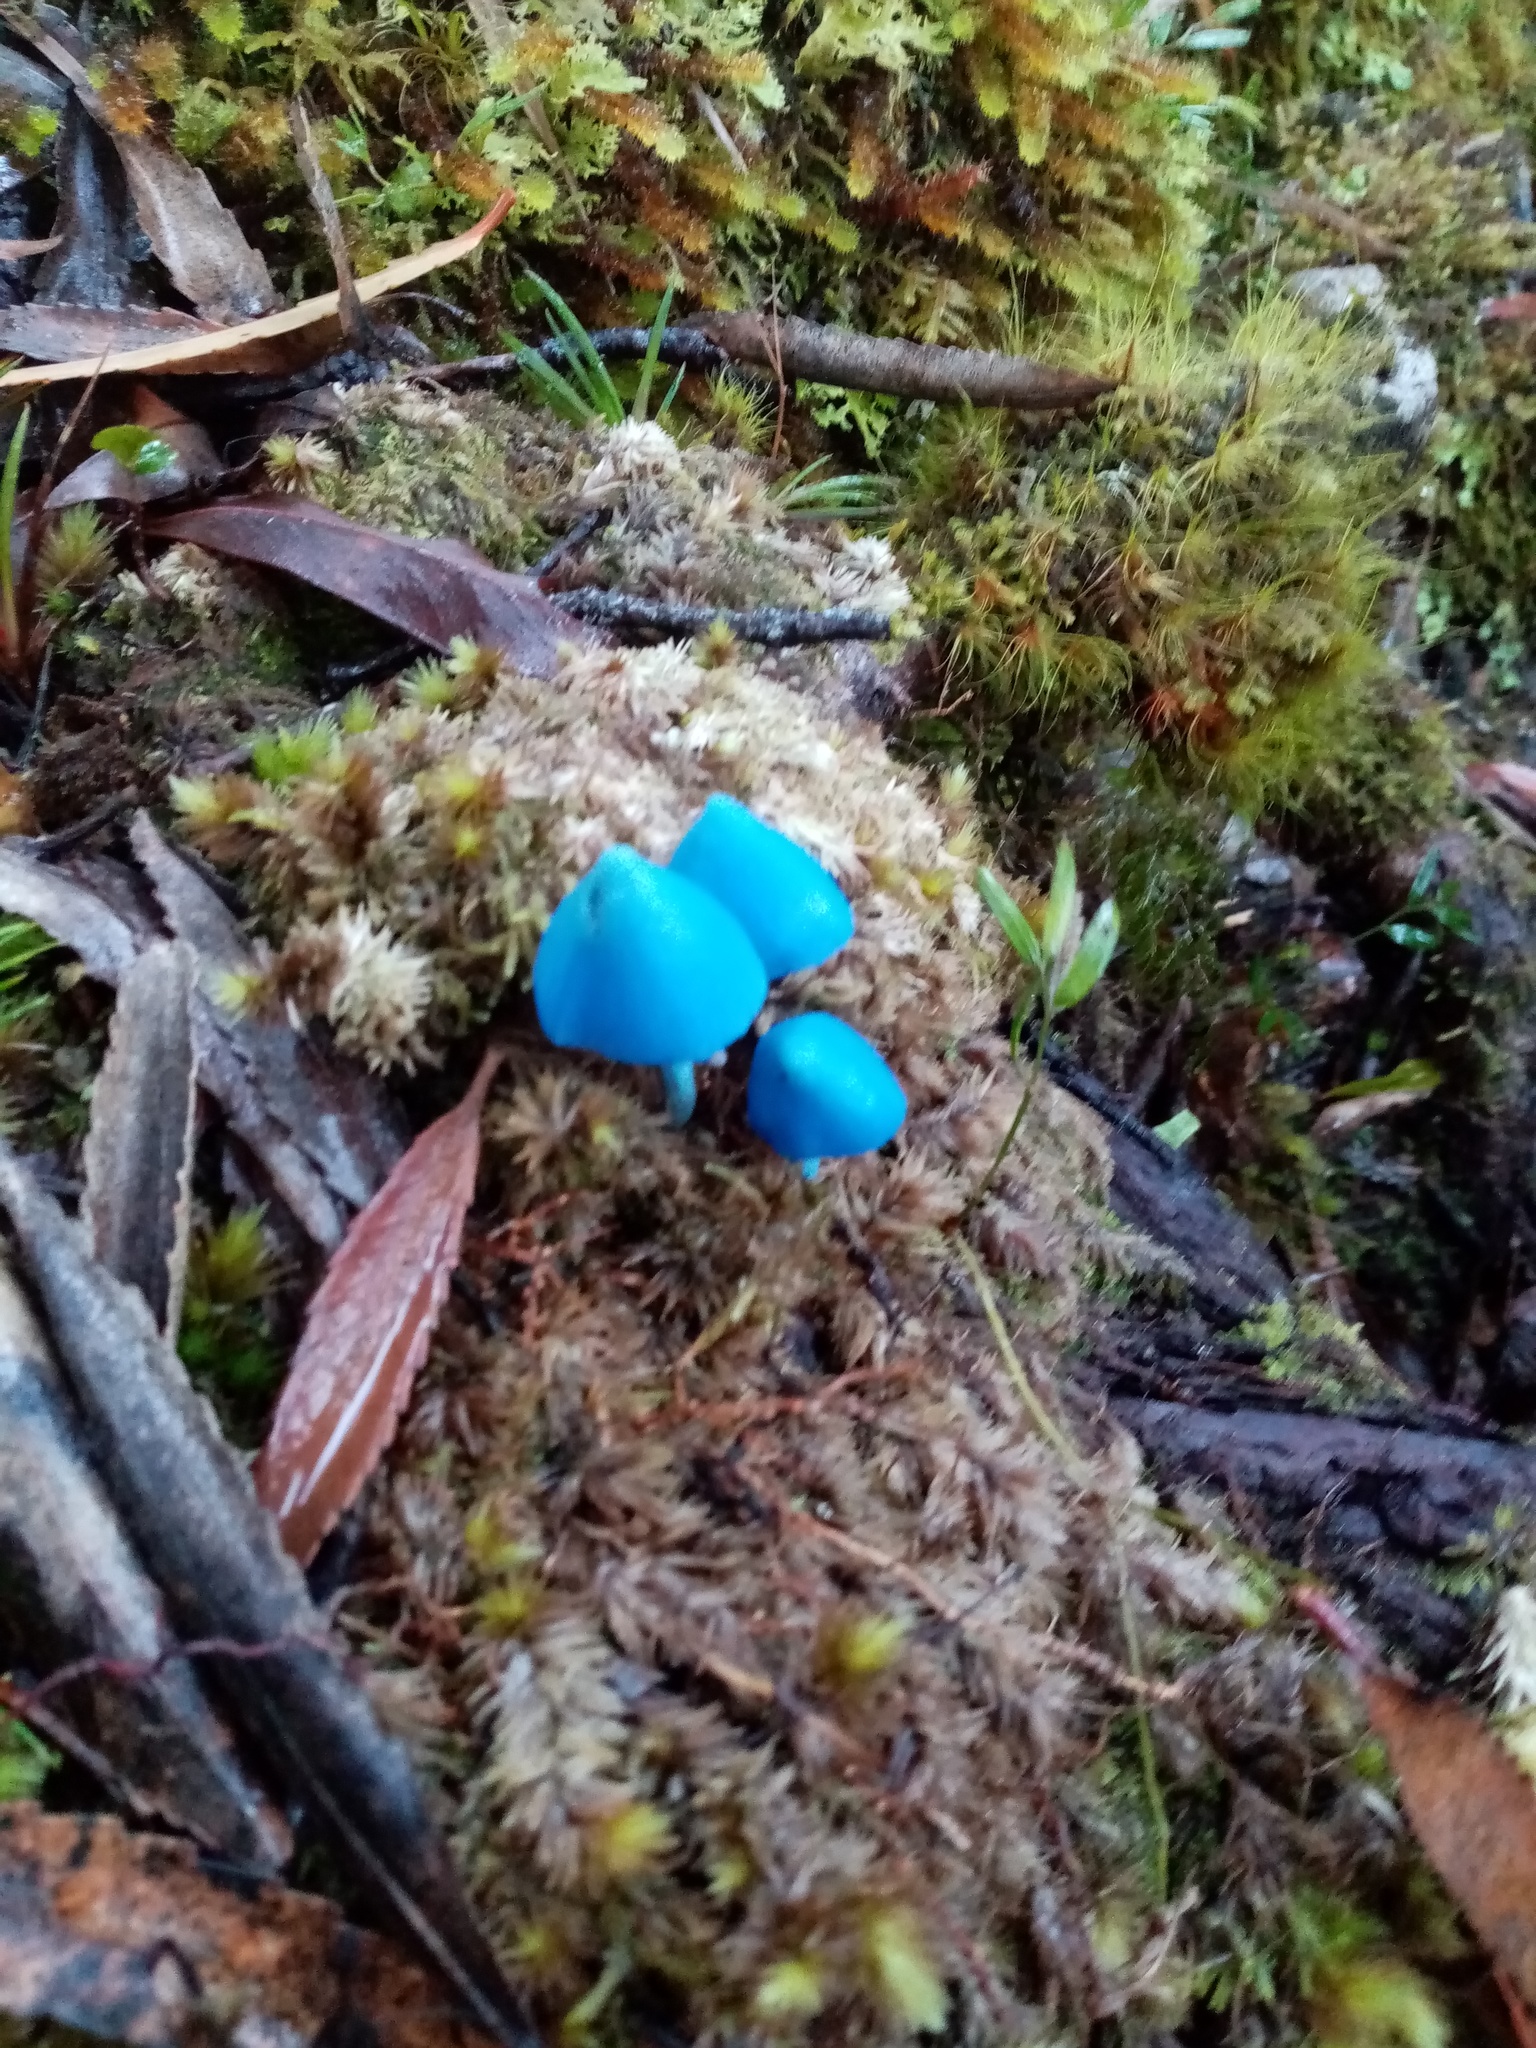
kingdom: Fungi
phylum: Basidiomycota
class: Agaricomycetes
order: Agaricales
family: Entolomataceae
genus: Entoloma
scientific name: Entoloma hochstetteri
